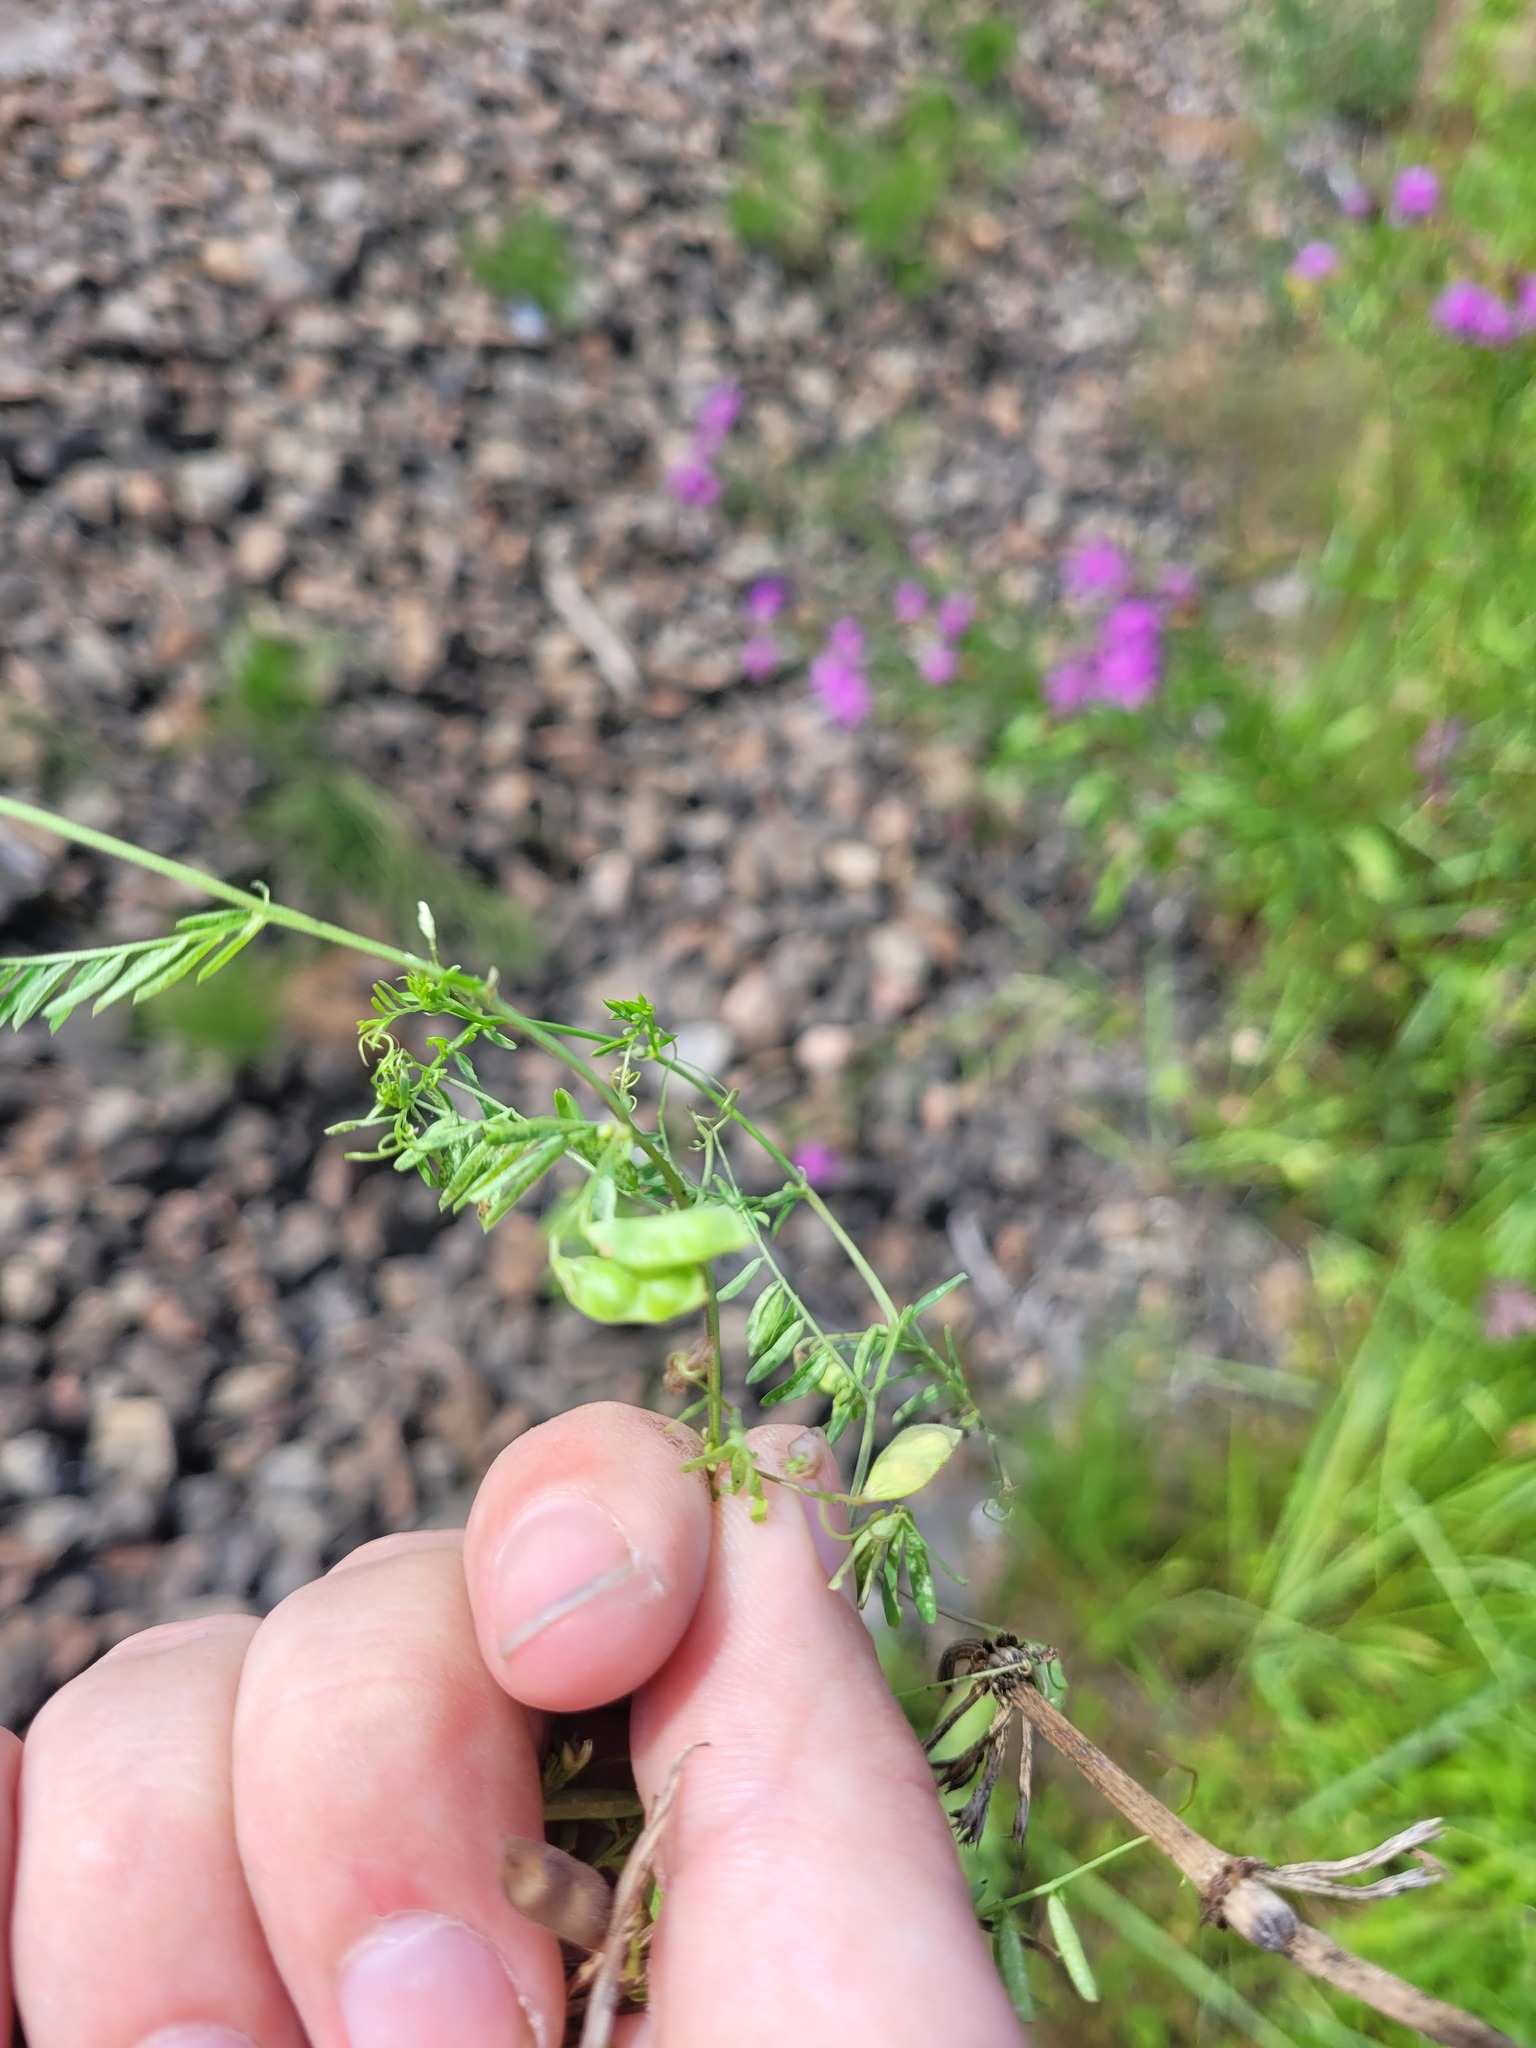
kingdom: Plantae
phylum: Tracheophyta
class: Magnoliopsida
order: Fabales
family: Fabaceae
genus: Vicia
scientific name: Vicia hirsuta
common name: Tiny vetch
